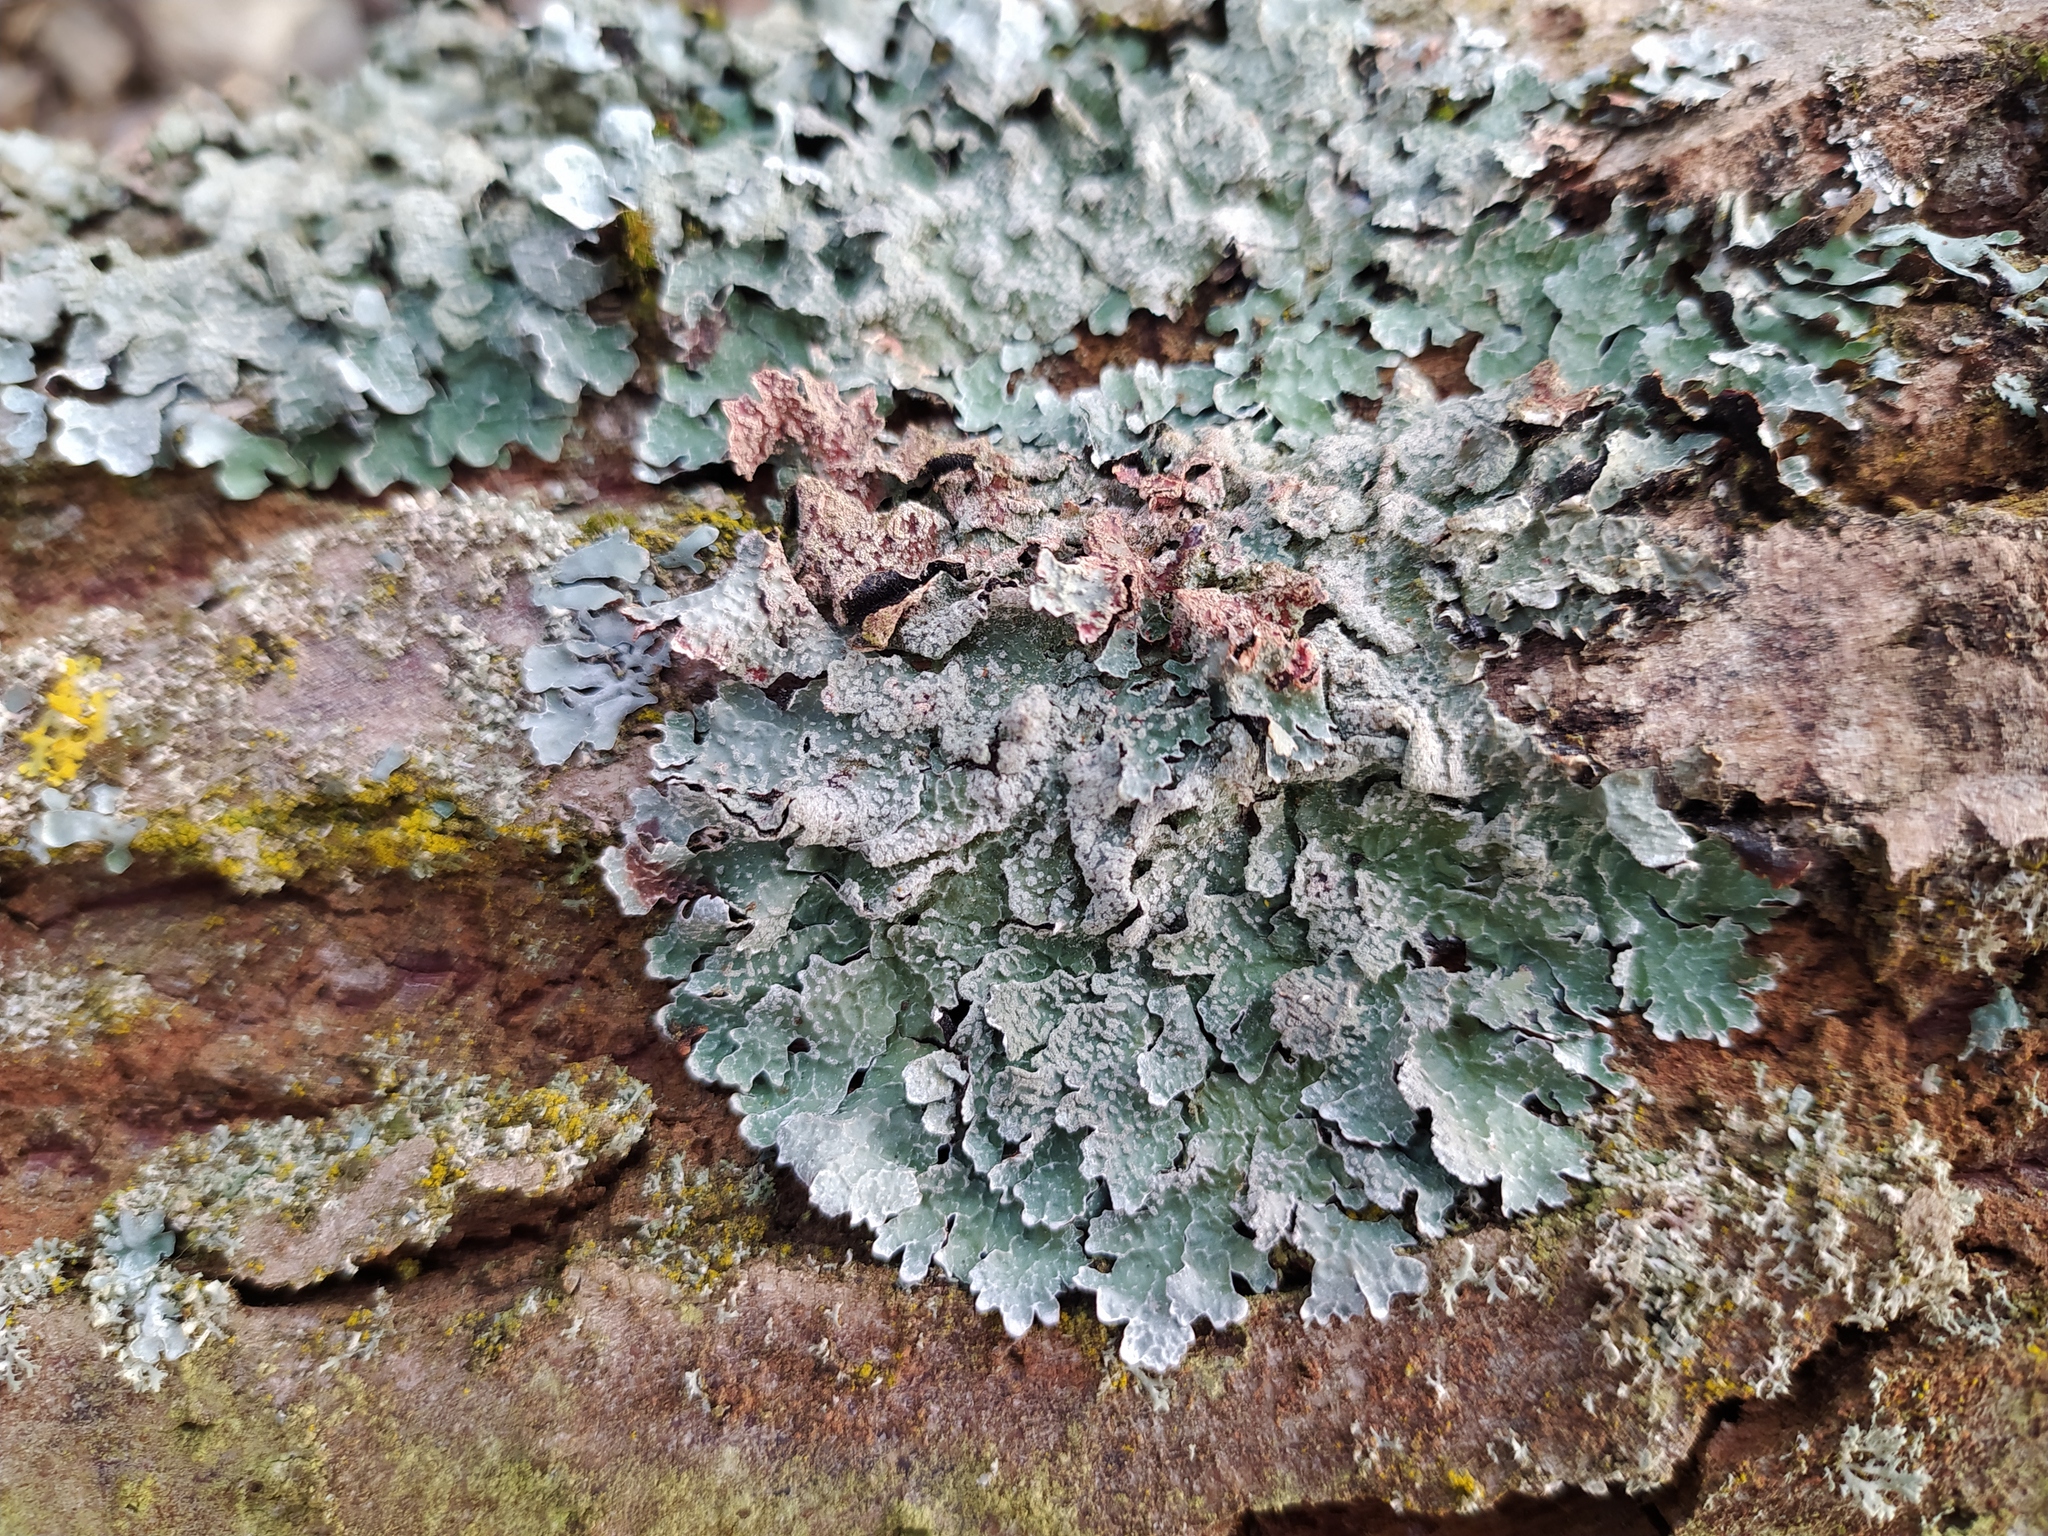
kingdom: Fungi
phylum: Ascomycota
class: Lecanoromycetes
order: Lecanorales
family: Parmeliaceae
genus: Parmelia
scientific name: Parmelia sulcata
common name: Netted shield lichen
